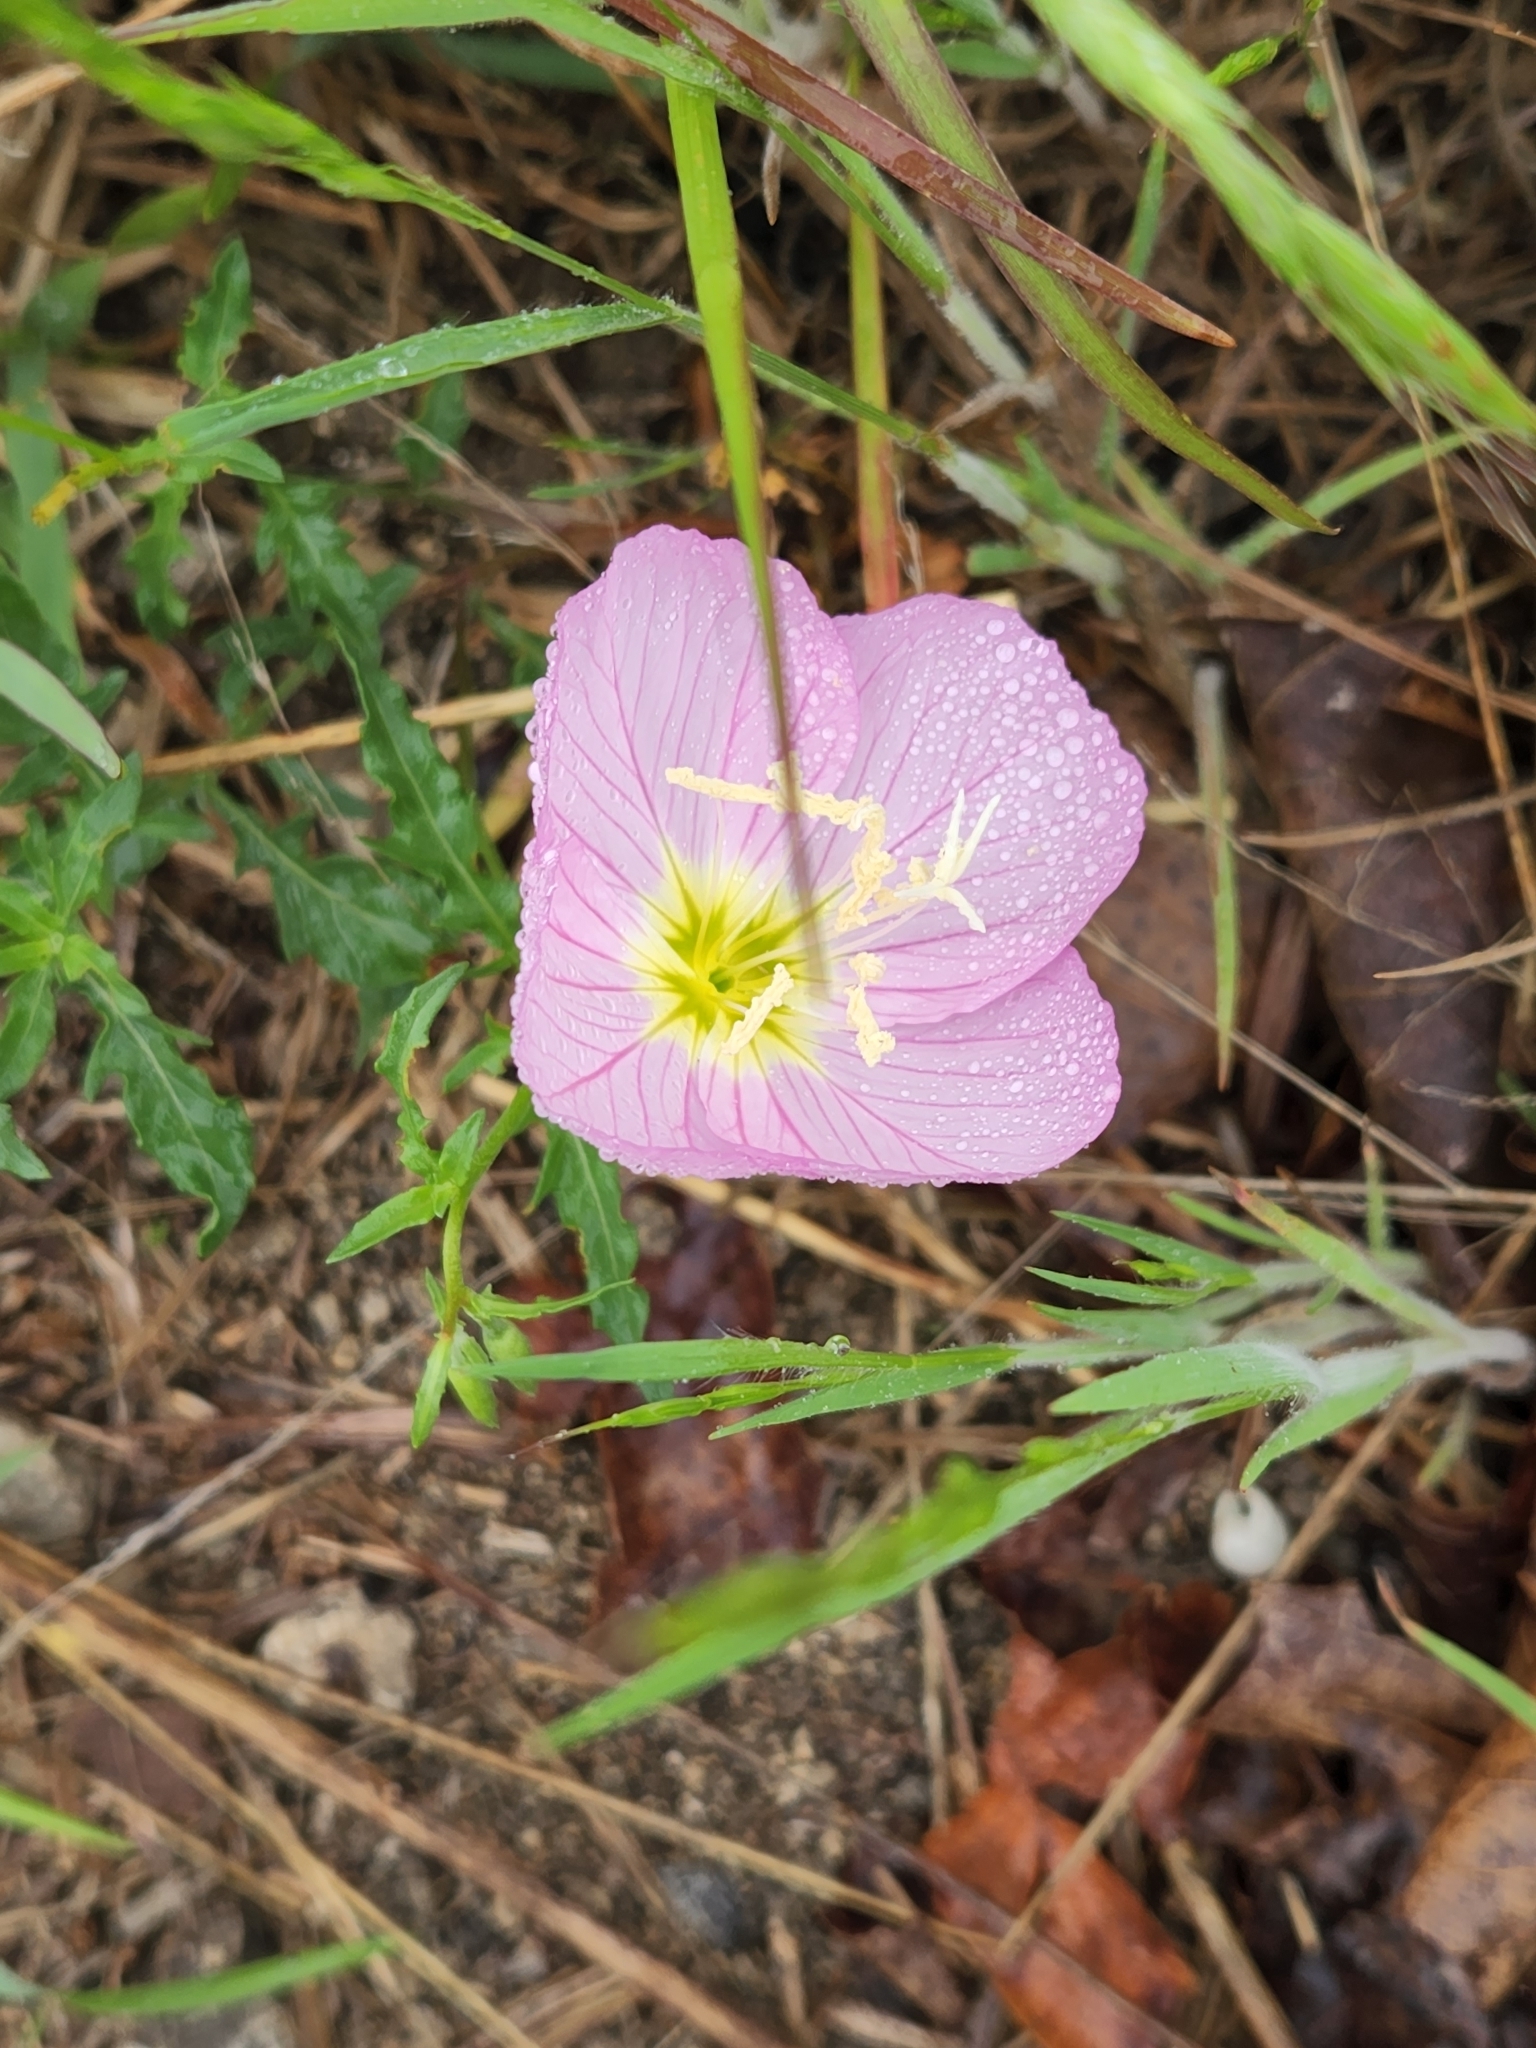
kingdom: Plantae
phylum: Tracheophyta
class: Magnoliopsida
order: Myrtales
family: Onagraceae
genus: Oenothera
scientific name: Oenothera speciosa
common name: White evening-primrose
